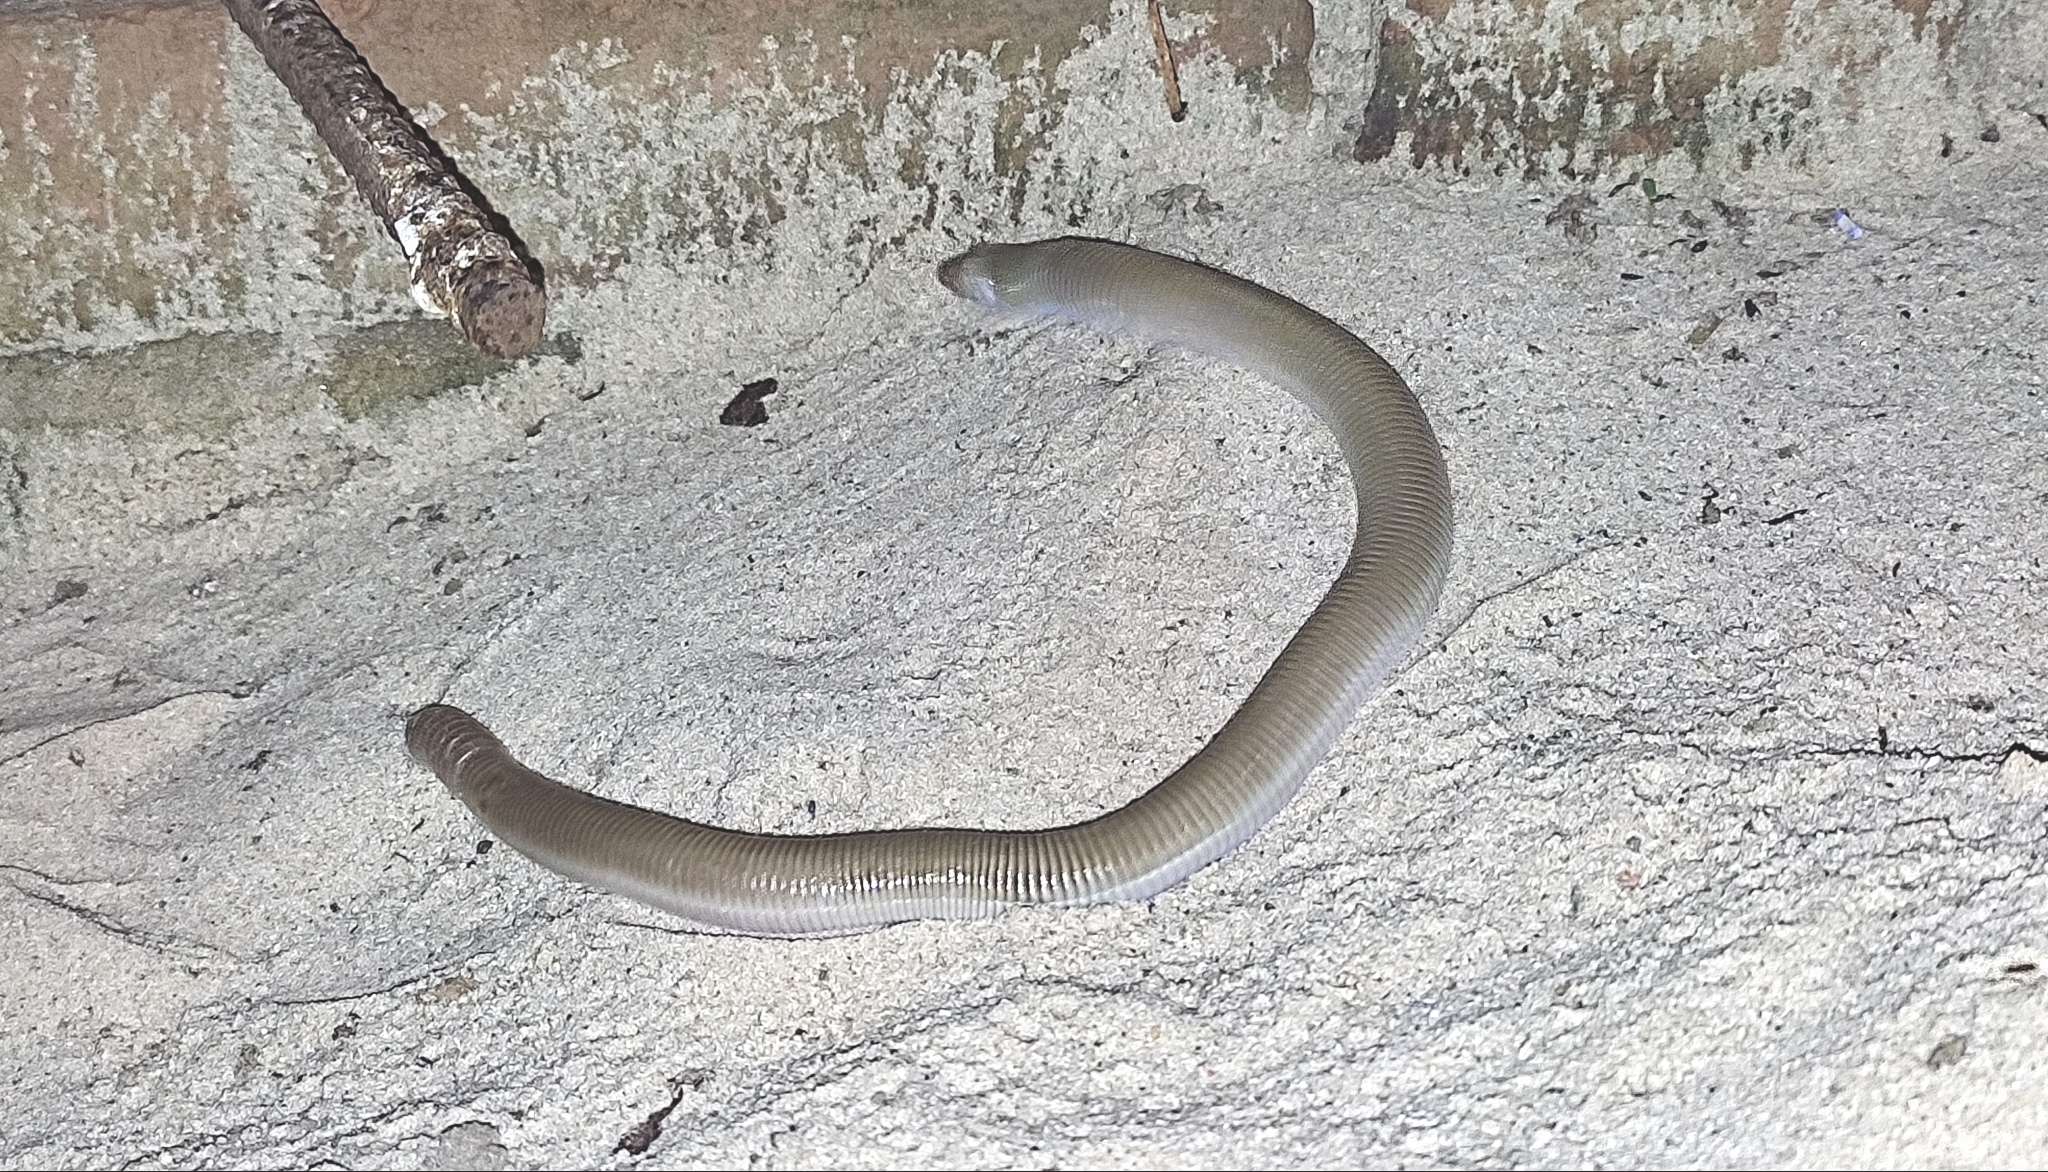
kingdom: Animalia
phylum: Chordata
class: Squamata
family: Amphisbaenidae
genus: Amphisbaena
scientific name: Amphisbaena camura
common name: Crooked worm lizard
